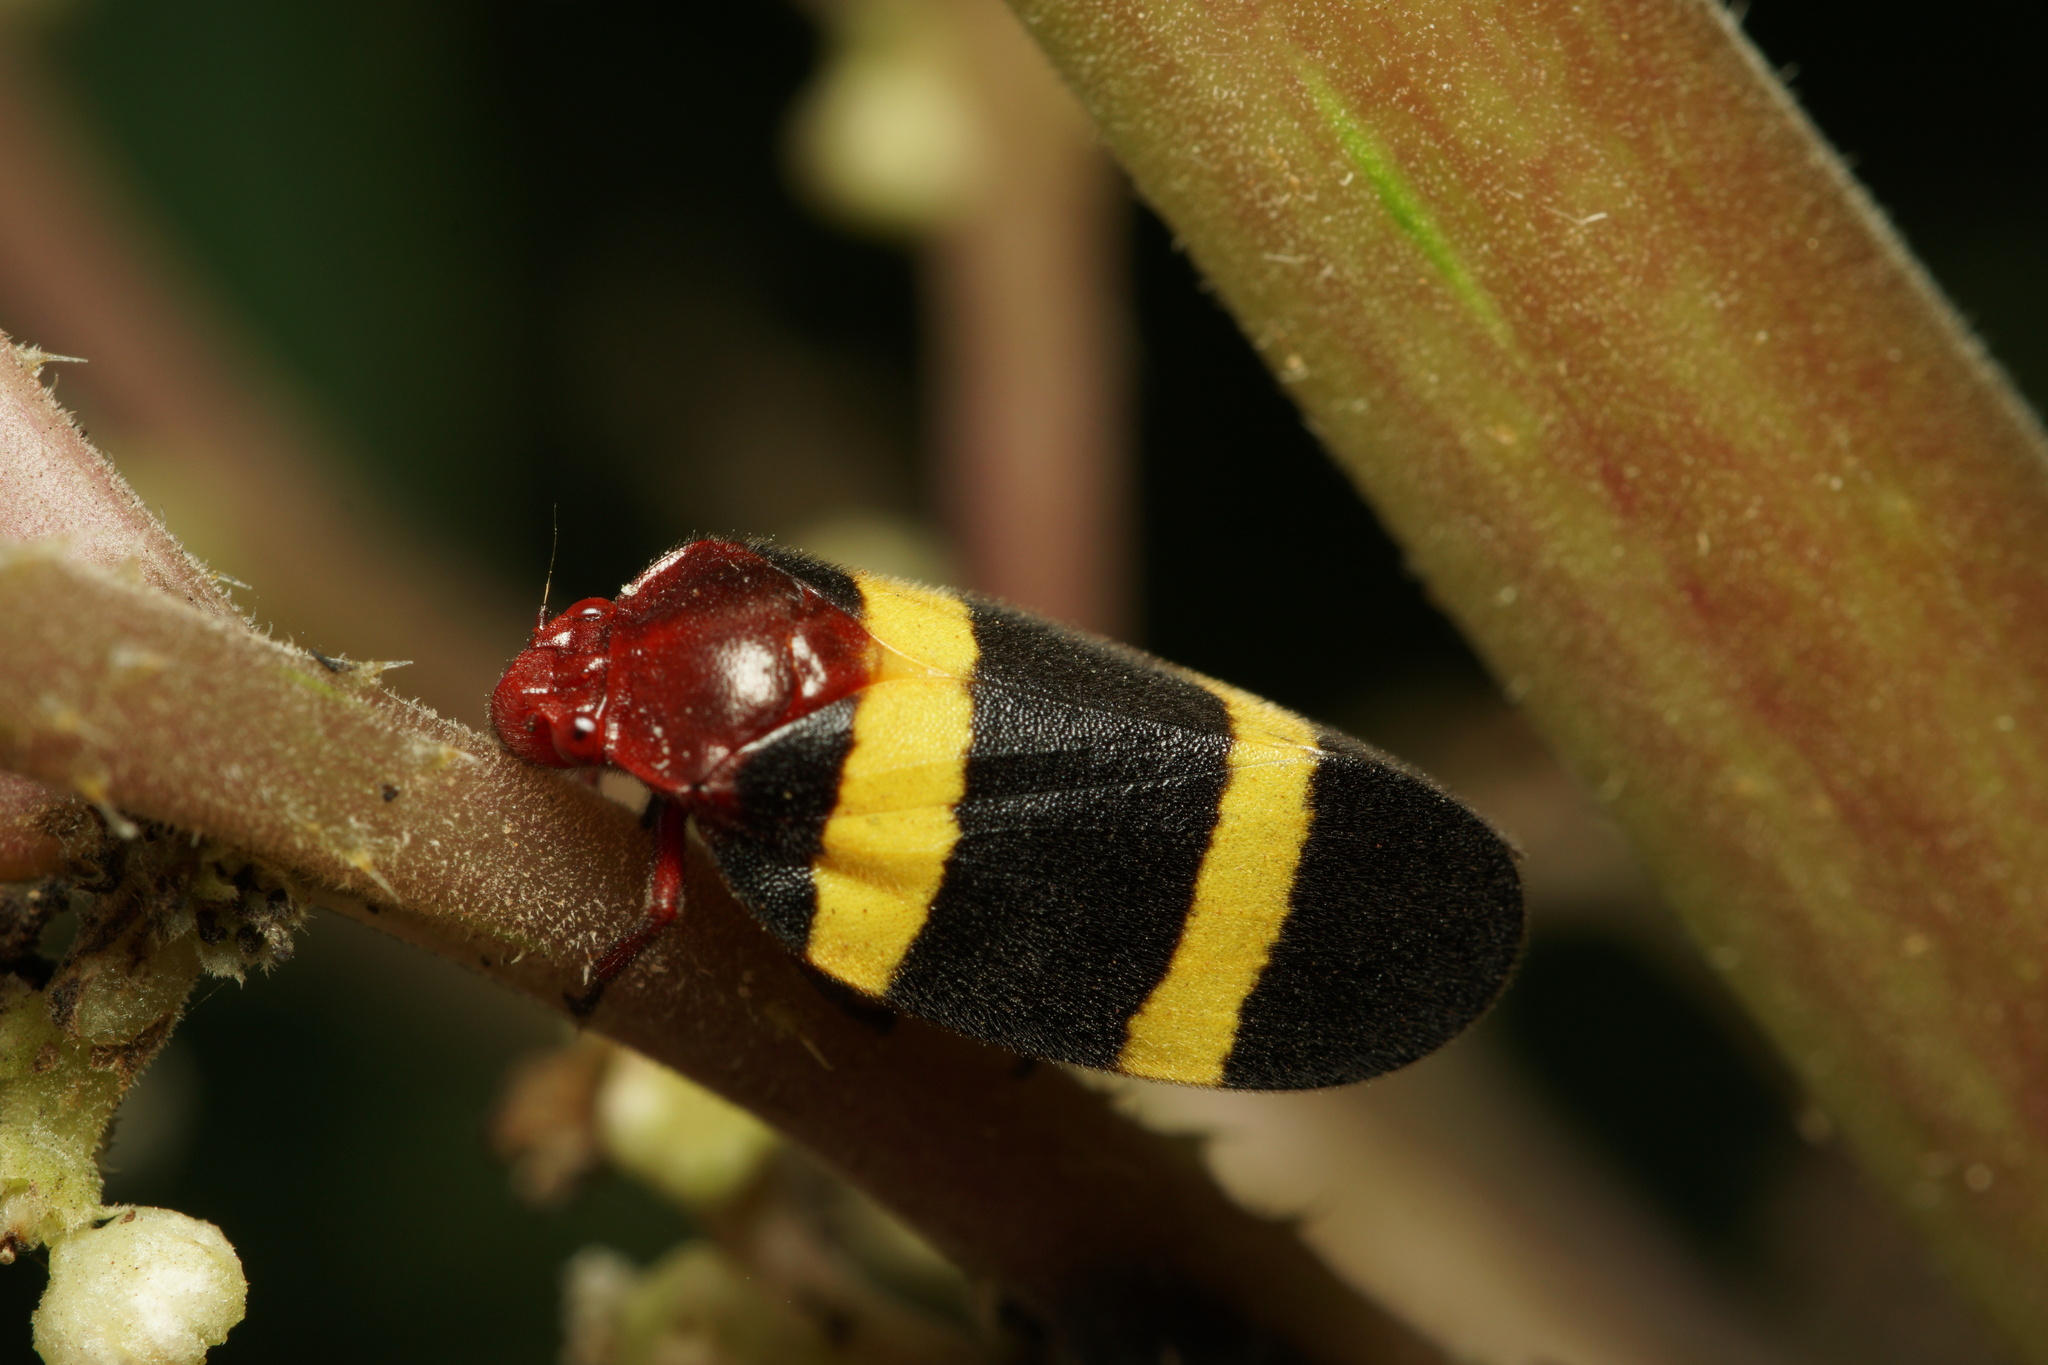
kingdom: Animalia
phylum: Arthropoda
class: Insecta
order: Hemiptera
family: Cercopidae
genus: Sphenorhina
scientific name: Sphenorhina rubra
